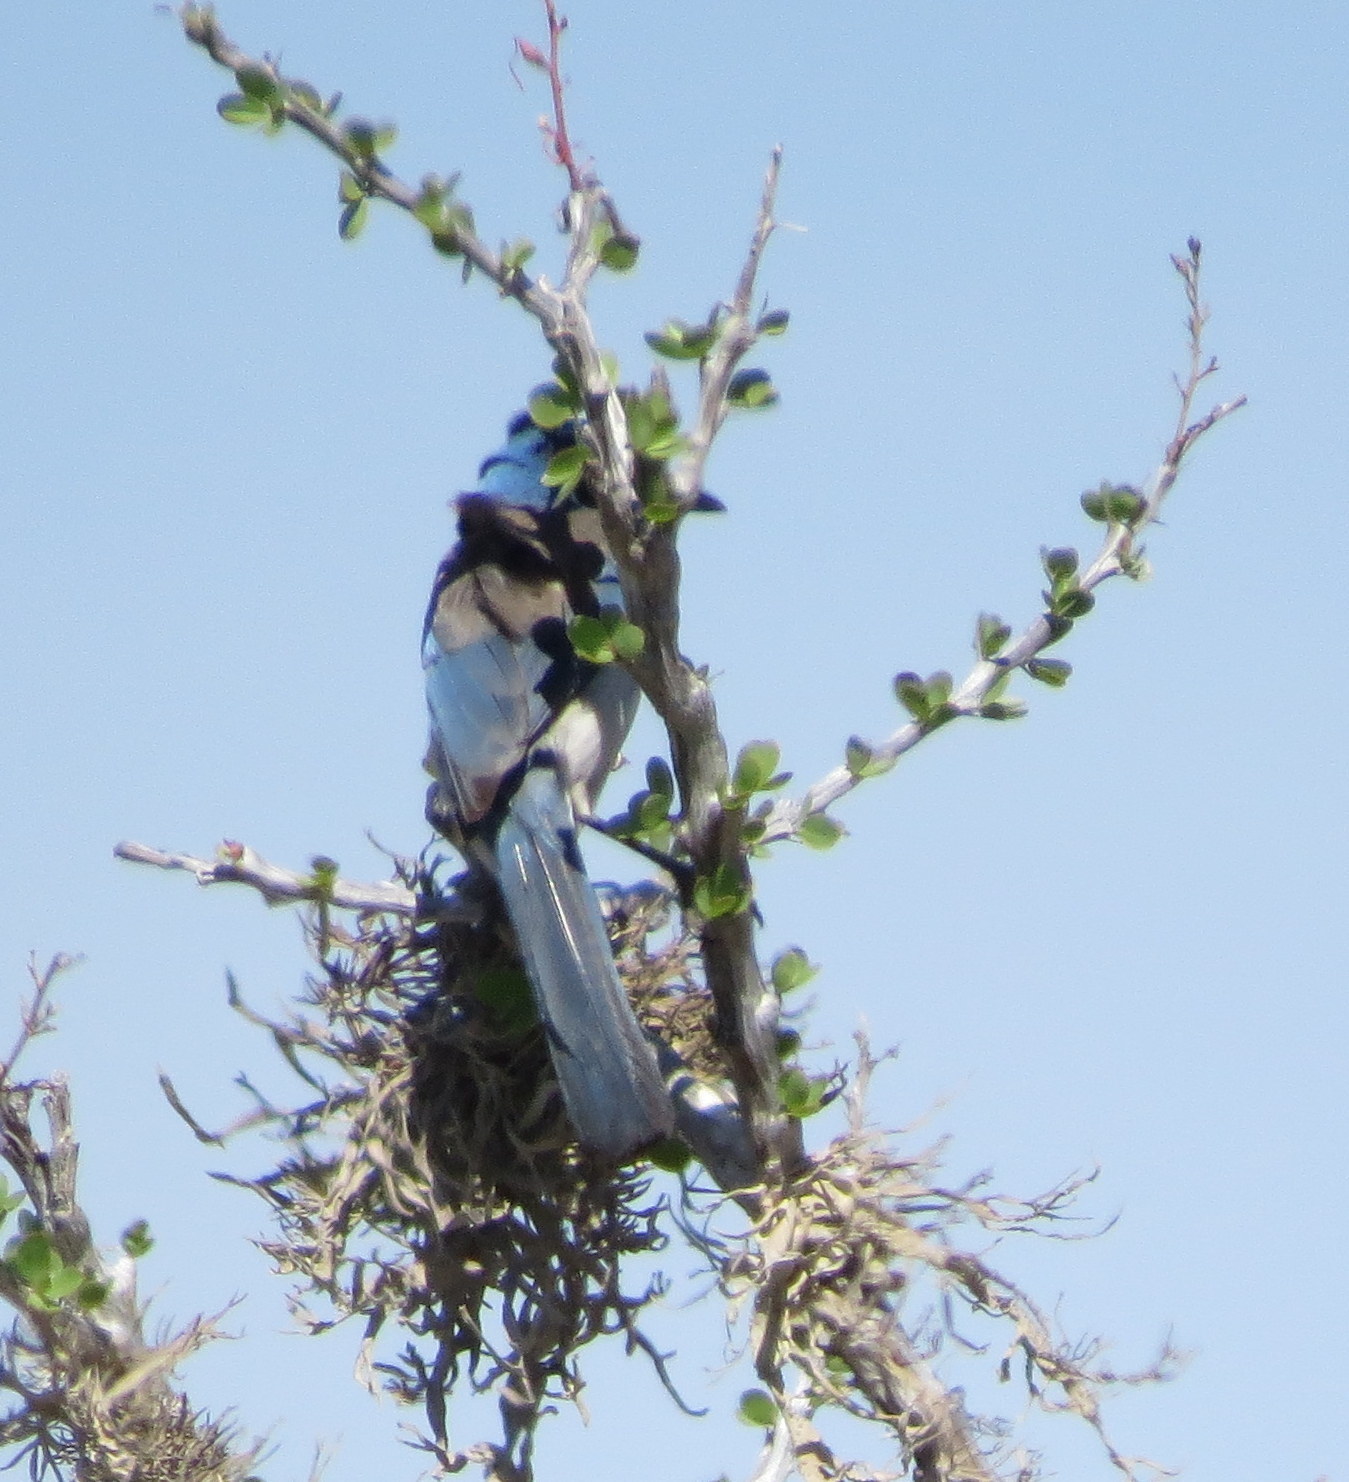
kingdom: Animalia
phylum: Chordata
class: Aves
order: Passeriformes
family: Corvidae
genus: Aphelocoma
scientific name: Aphelocoma californica
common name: California scrub-jay
